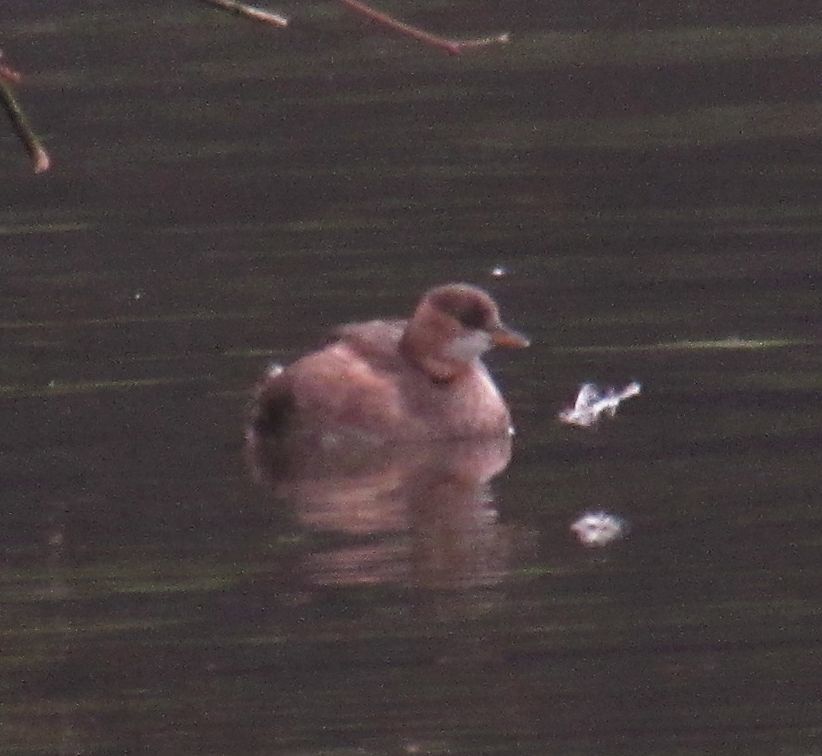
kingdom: Animalia
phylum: Chordata
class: Aves
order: Podicipediformes
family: Podicipedidae
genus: Tachybaptus
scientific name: Tachybaptus ruficollis
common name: Little grebe
